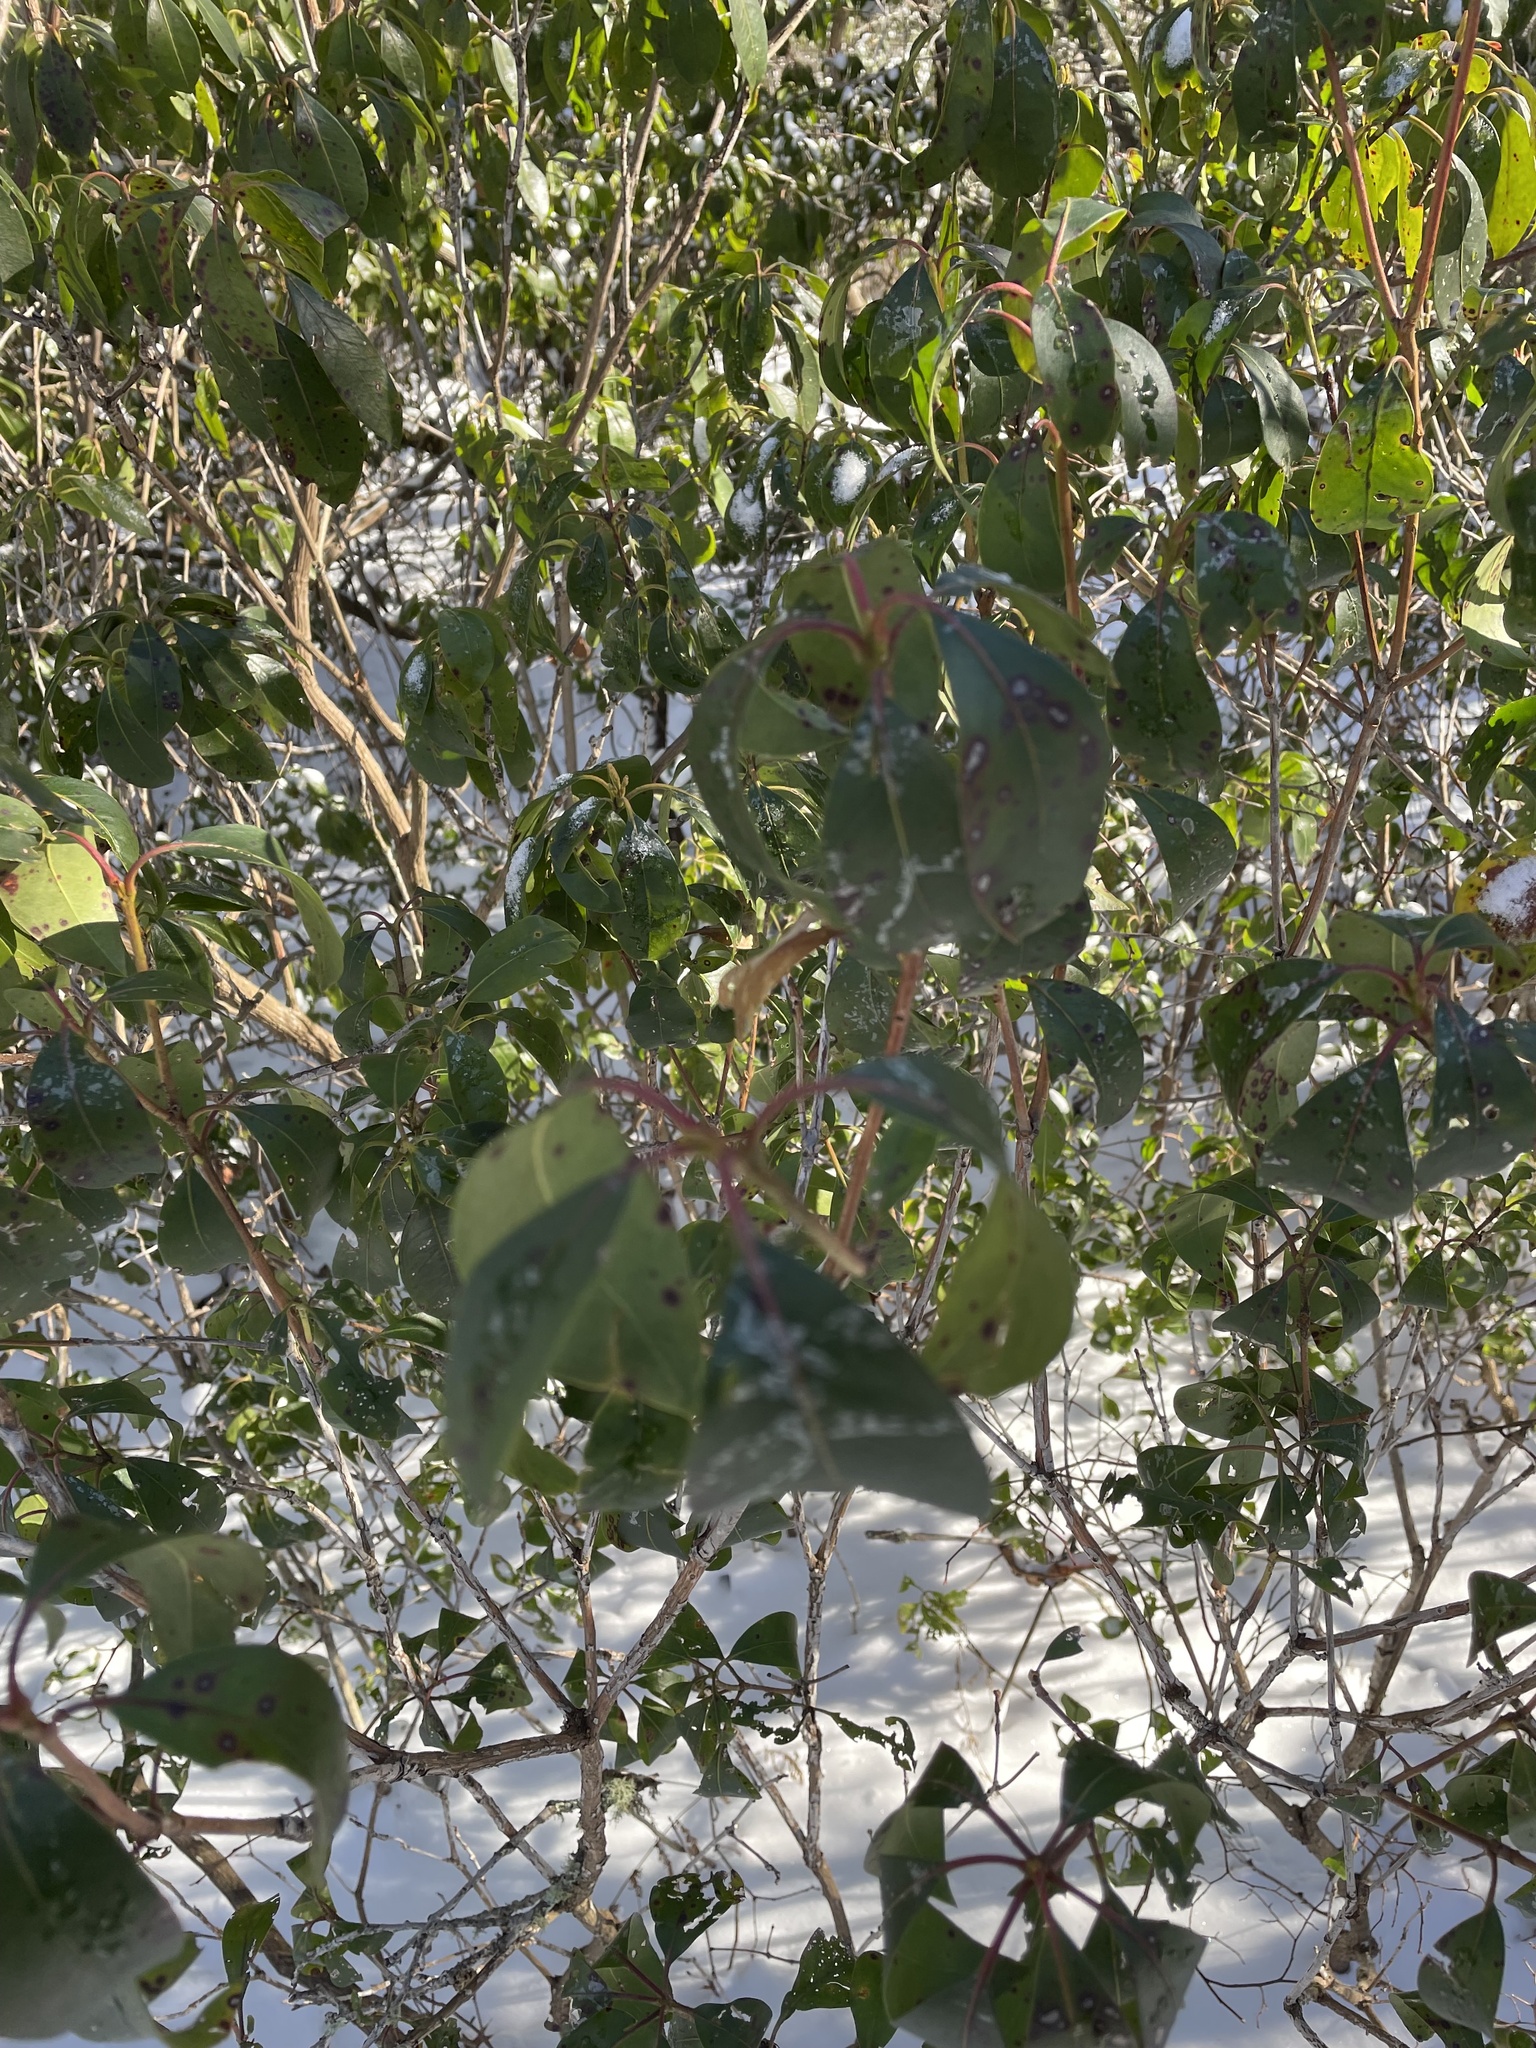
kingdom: Plantae
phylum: Tracheophyta
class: Magnoliopsida
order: Ericales
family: Ericaceae
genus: Kalmia
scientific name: Kalmia latifolia
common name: Mountain-laurel
